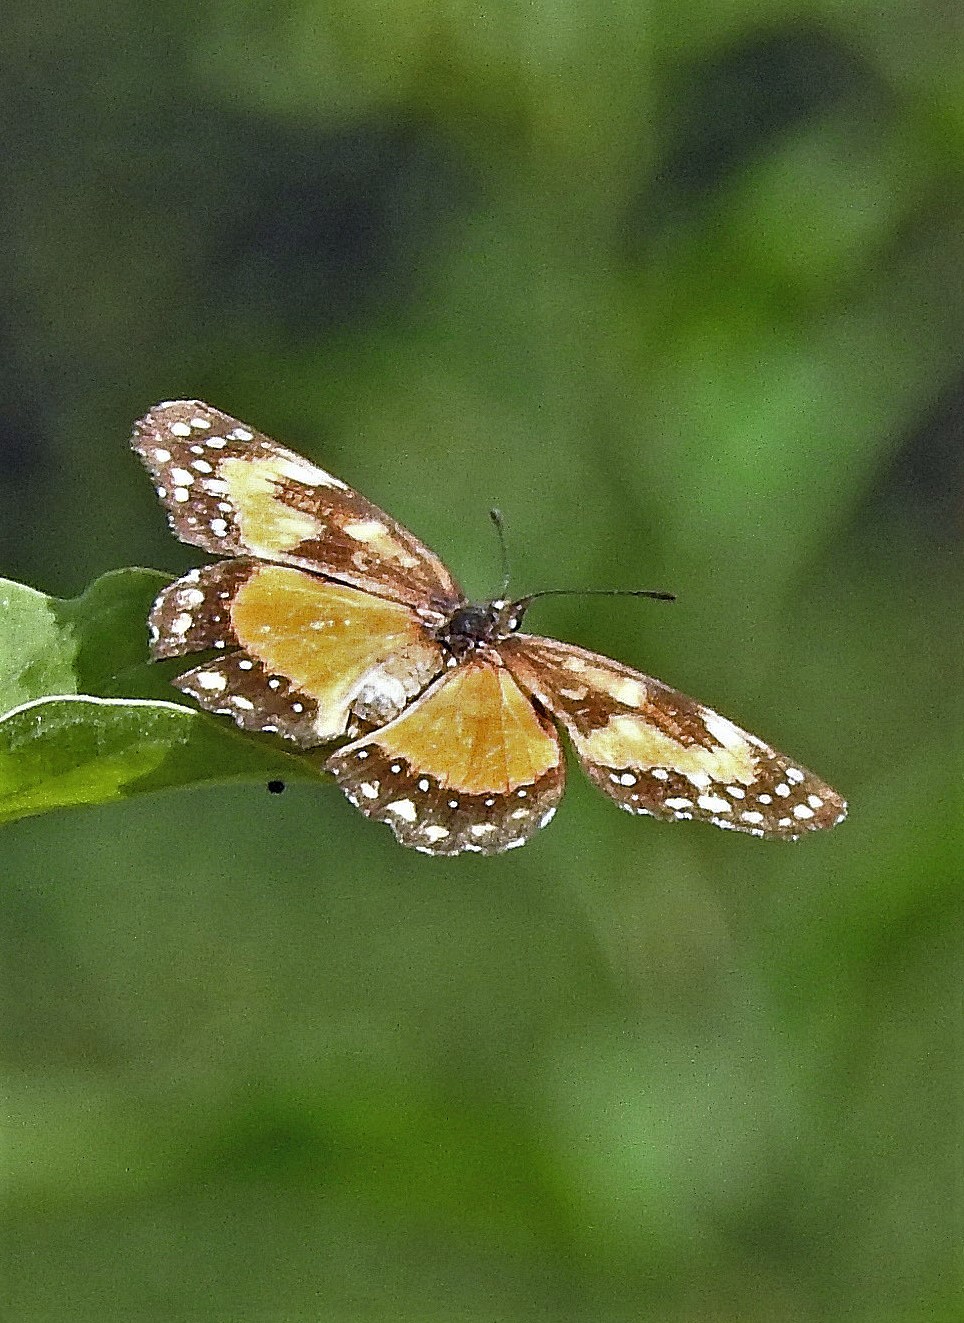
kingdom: Animalia
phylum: Arthropoda
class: Insecta
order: Lepidoptera
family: Nymphalidae
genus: Chlosyne
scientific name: Chlosyne lacinia
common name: Bordered patch
